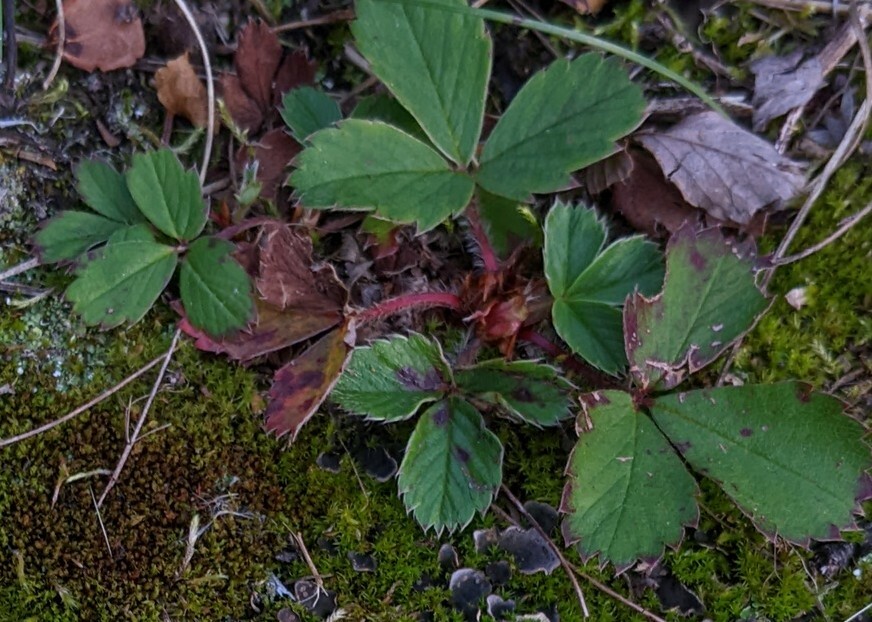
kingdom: Plantae
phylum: Tracheophyta
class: Magnoliopsida
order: Rosales
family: Rosaceae
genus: Fragaria
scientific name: Fragaria virginiana
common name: Thickleaved wild strawberry
